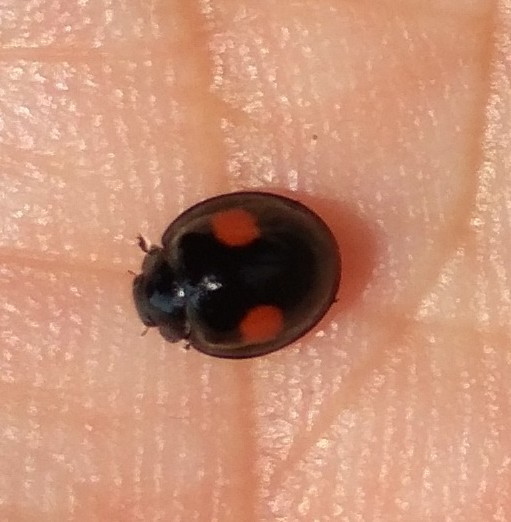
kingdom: Animalia
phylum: Arthropoda
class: Insecta
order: Coleoptera
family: Coccinellidae
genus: Chilocorus
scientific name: Chilocorus renipustulatus
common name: Kidney-spot ladybird
